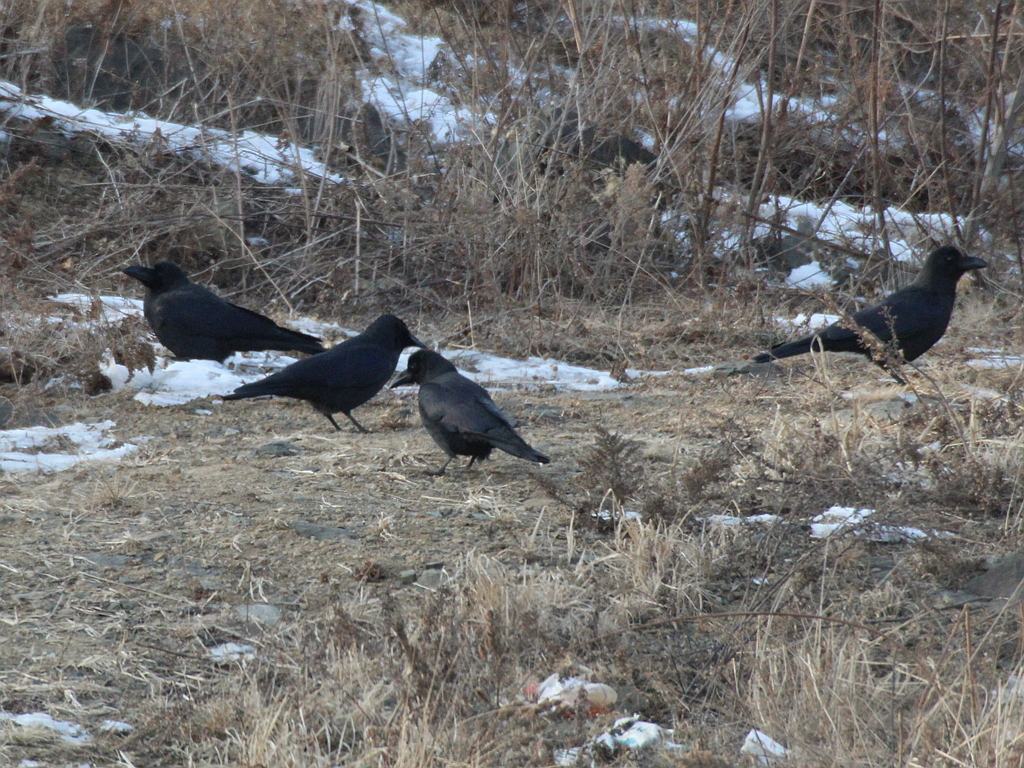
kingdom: Animalia
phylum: Chordata
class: Aves
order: Passeriformes
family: Corvidae
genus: Corvus
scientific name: Corvus macrorhynchos
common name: Large-billed crow
